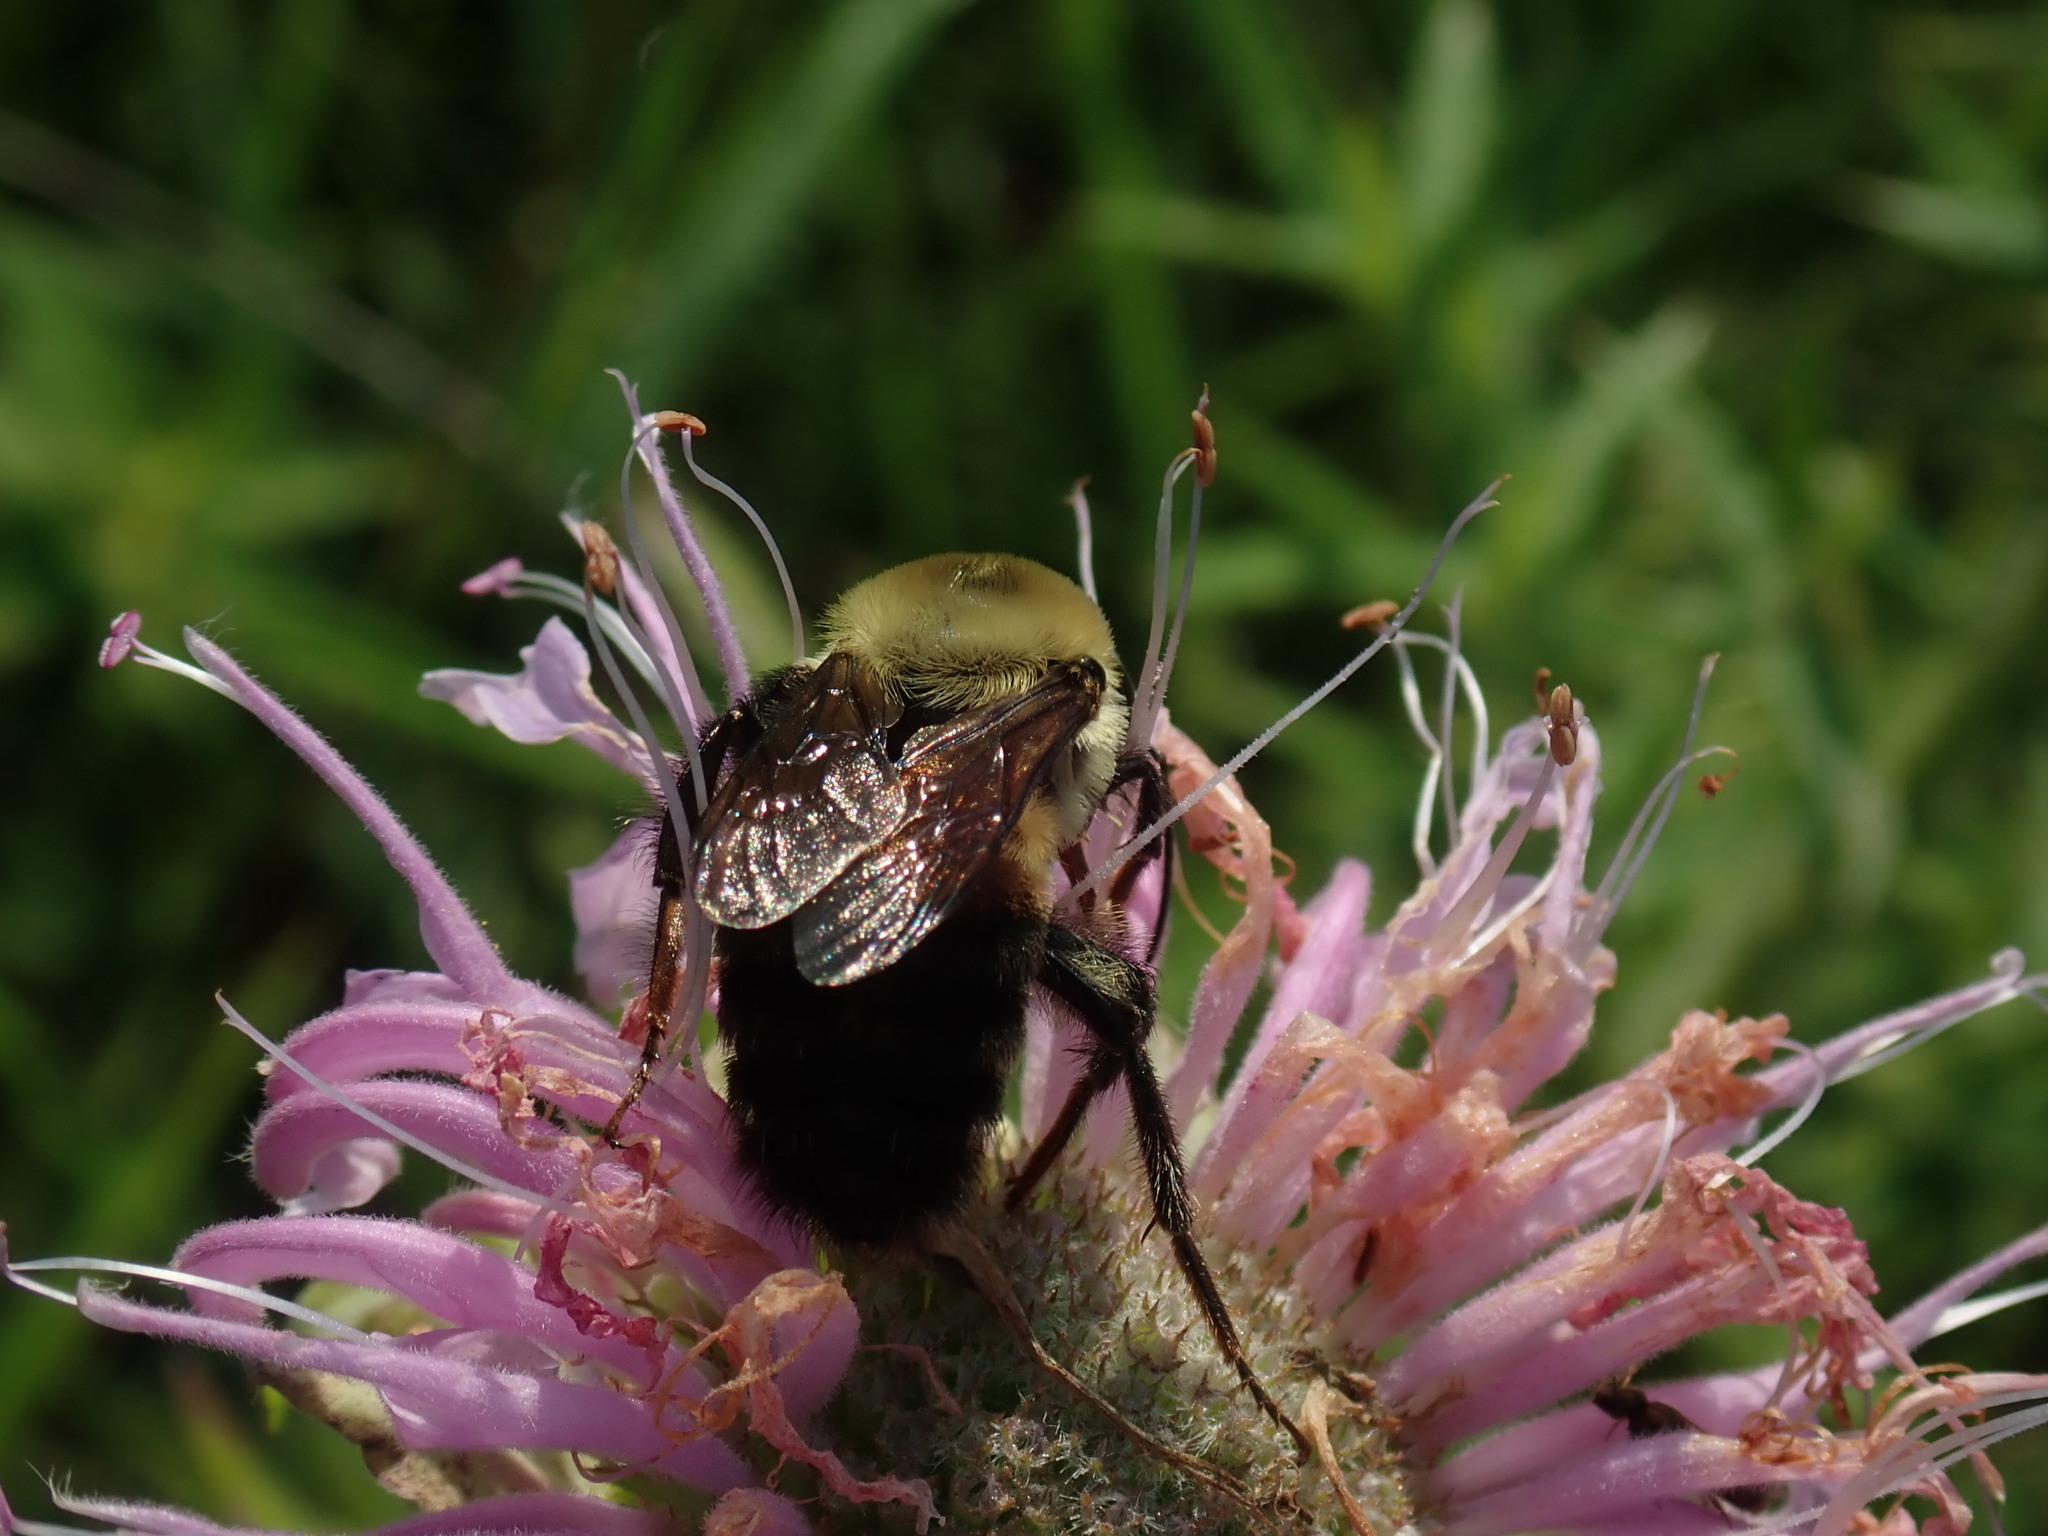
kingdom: Animalia
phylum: Arthropoda
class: Insecta
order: Hymenoptera
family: Apidae
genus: Bombus
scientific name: Bombus griseocollis
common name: Brown-belted bumble bee
